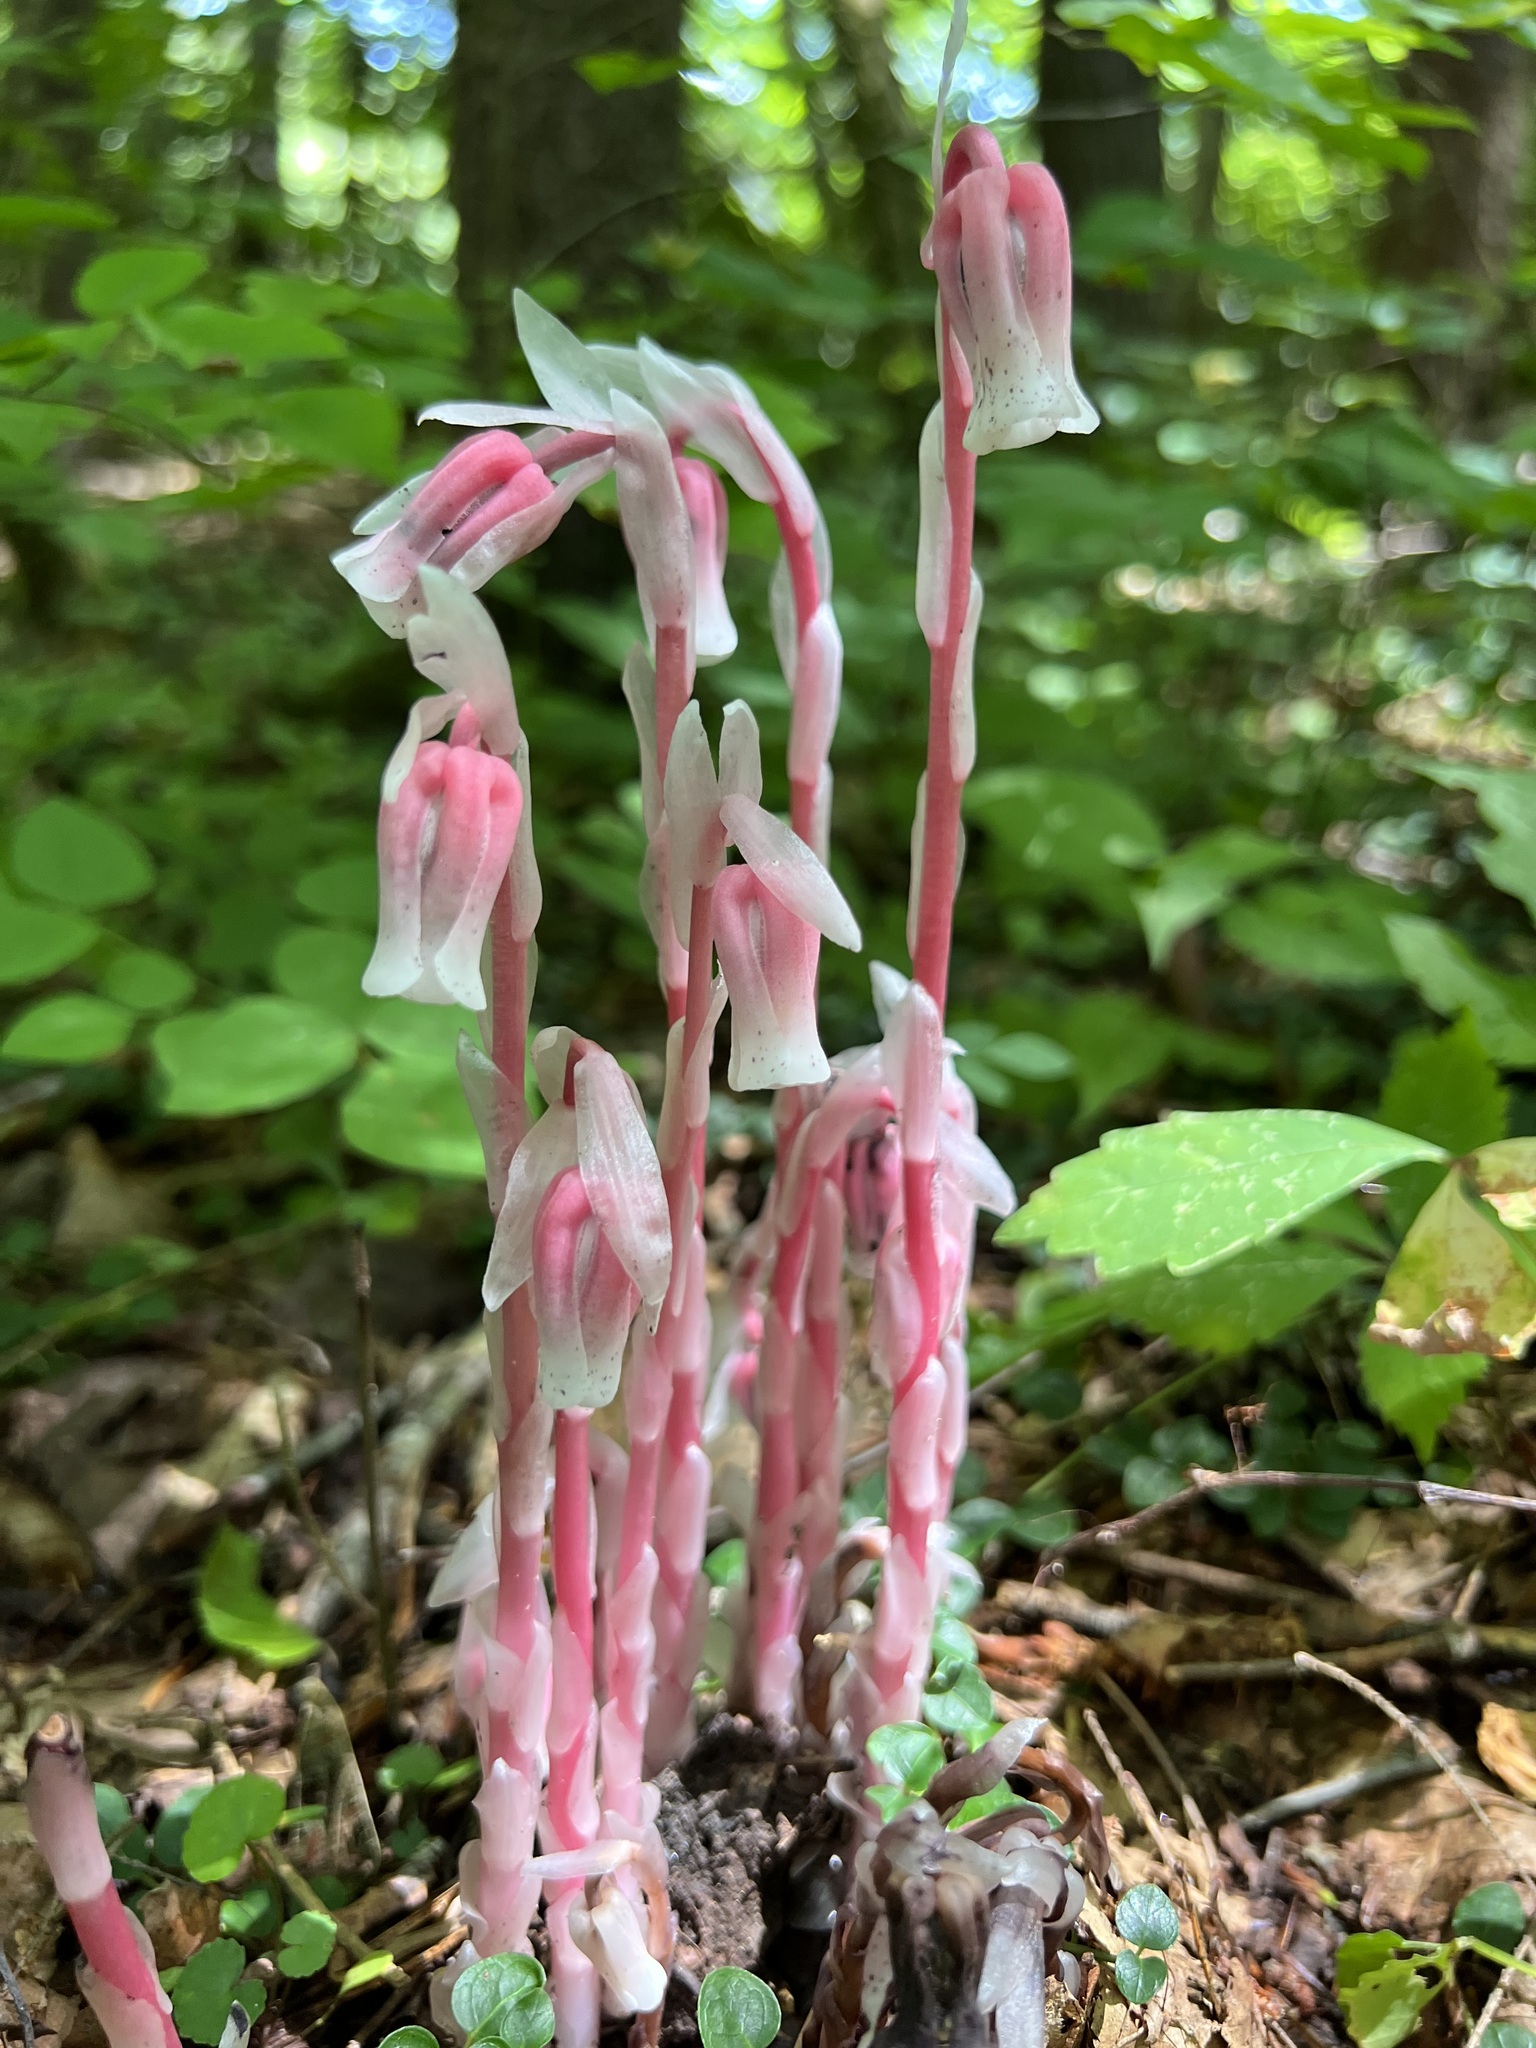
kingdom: Plantae
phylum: Tracheophyta
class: Magnoliopsida
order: Ericales
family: Ericaceae
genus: Monotropa
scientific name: Monotropa uniflora
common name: Convulsion root
